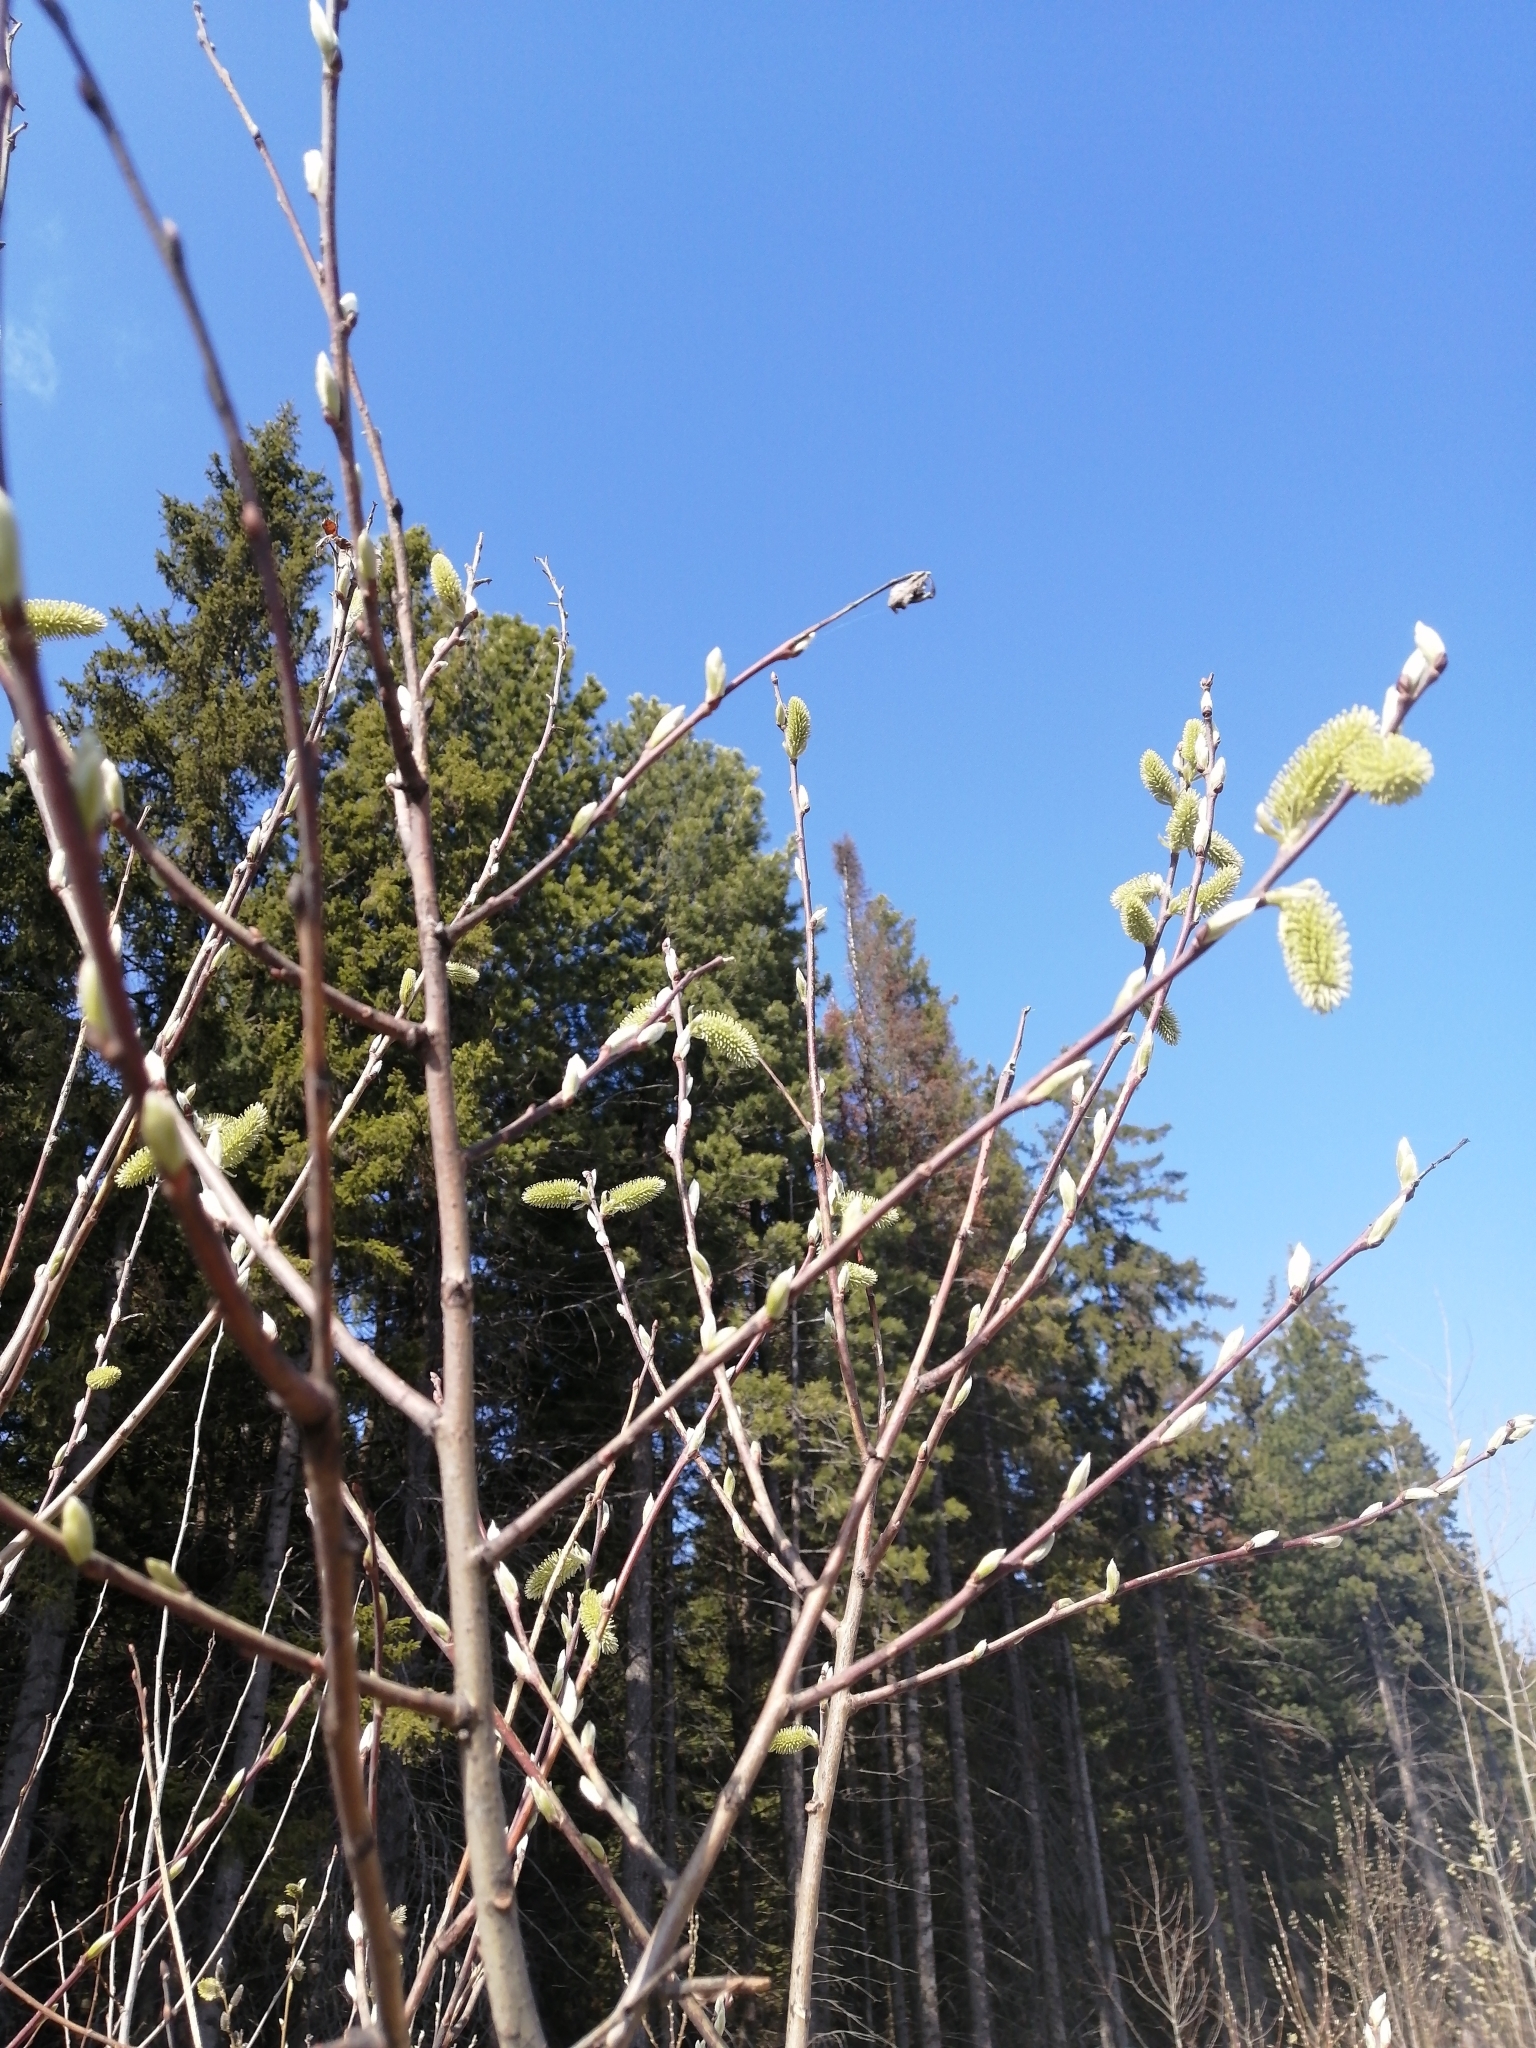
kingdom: Plantae
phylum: Tracheophyta
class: Magnoliopsida
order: Malpighiales
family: Salicaceae
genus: Salix
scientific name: Salix caprea
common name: Goat willow
